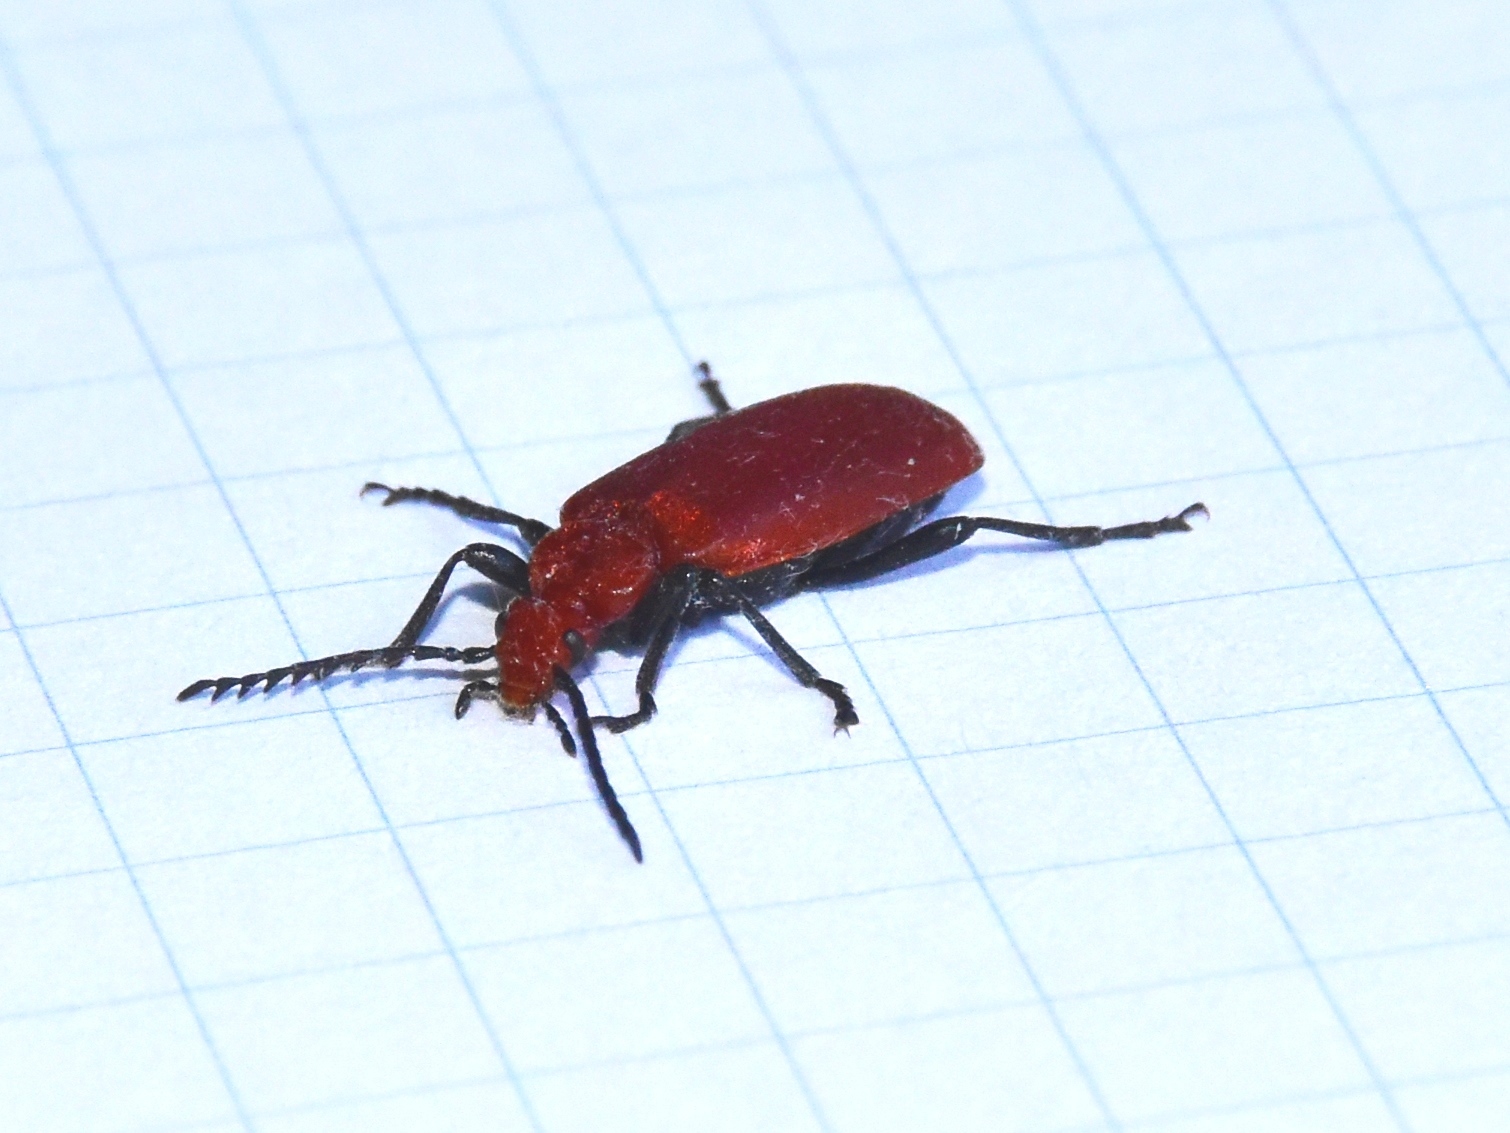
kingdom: Animalia
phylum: Arthropoda
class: Insecta
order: Coleoptera
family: Pyrochroidae
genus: Pyrochroa
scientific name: Pyrochroa serraticornis
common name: Red-headed cardinal beetle
